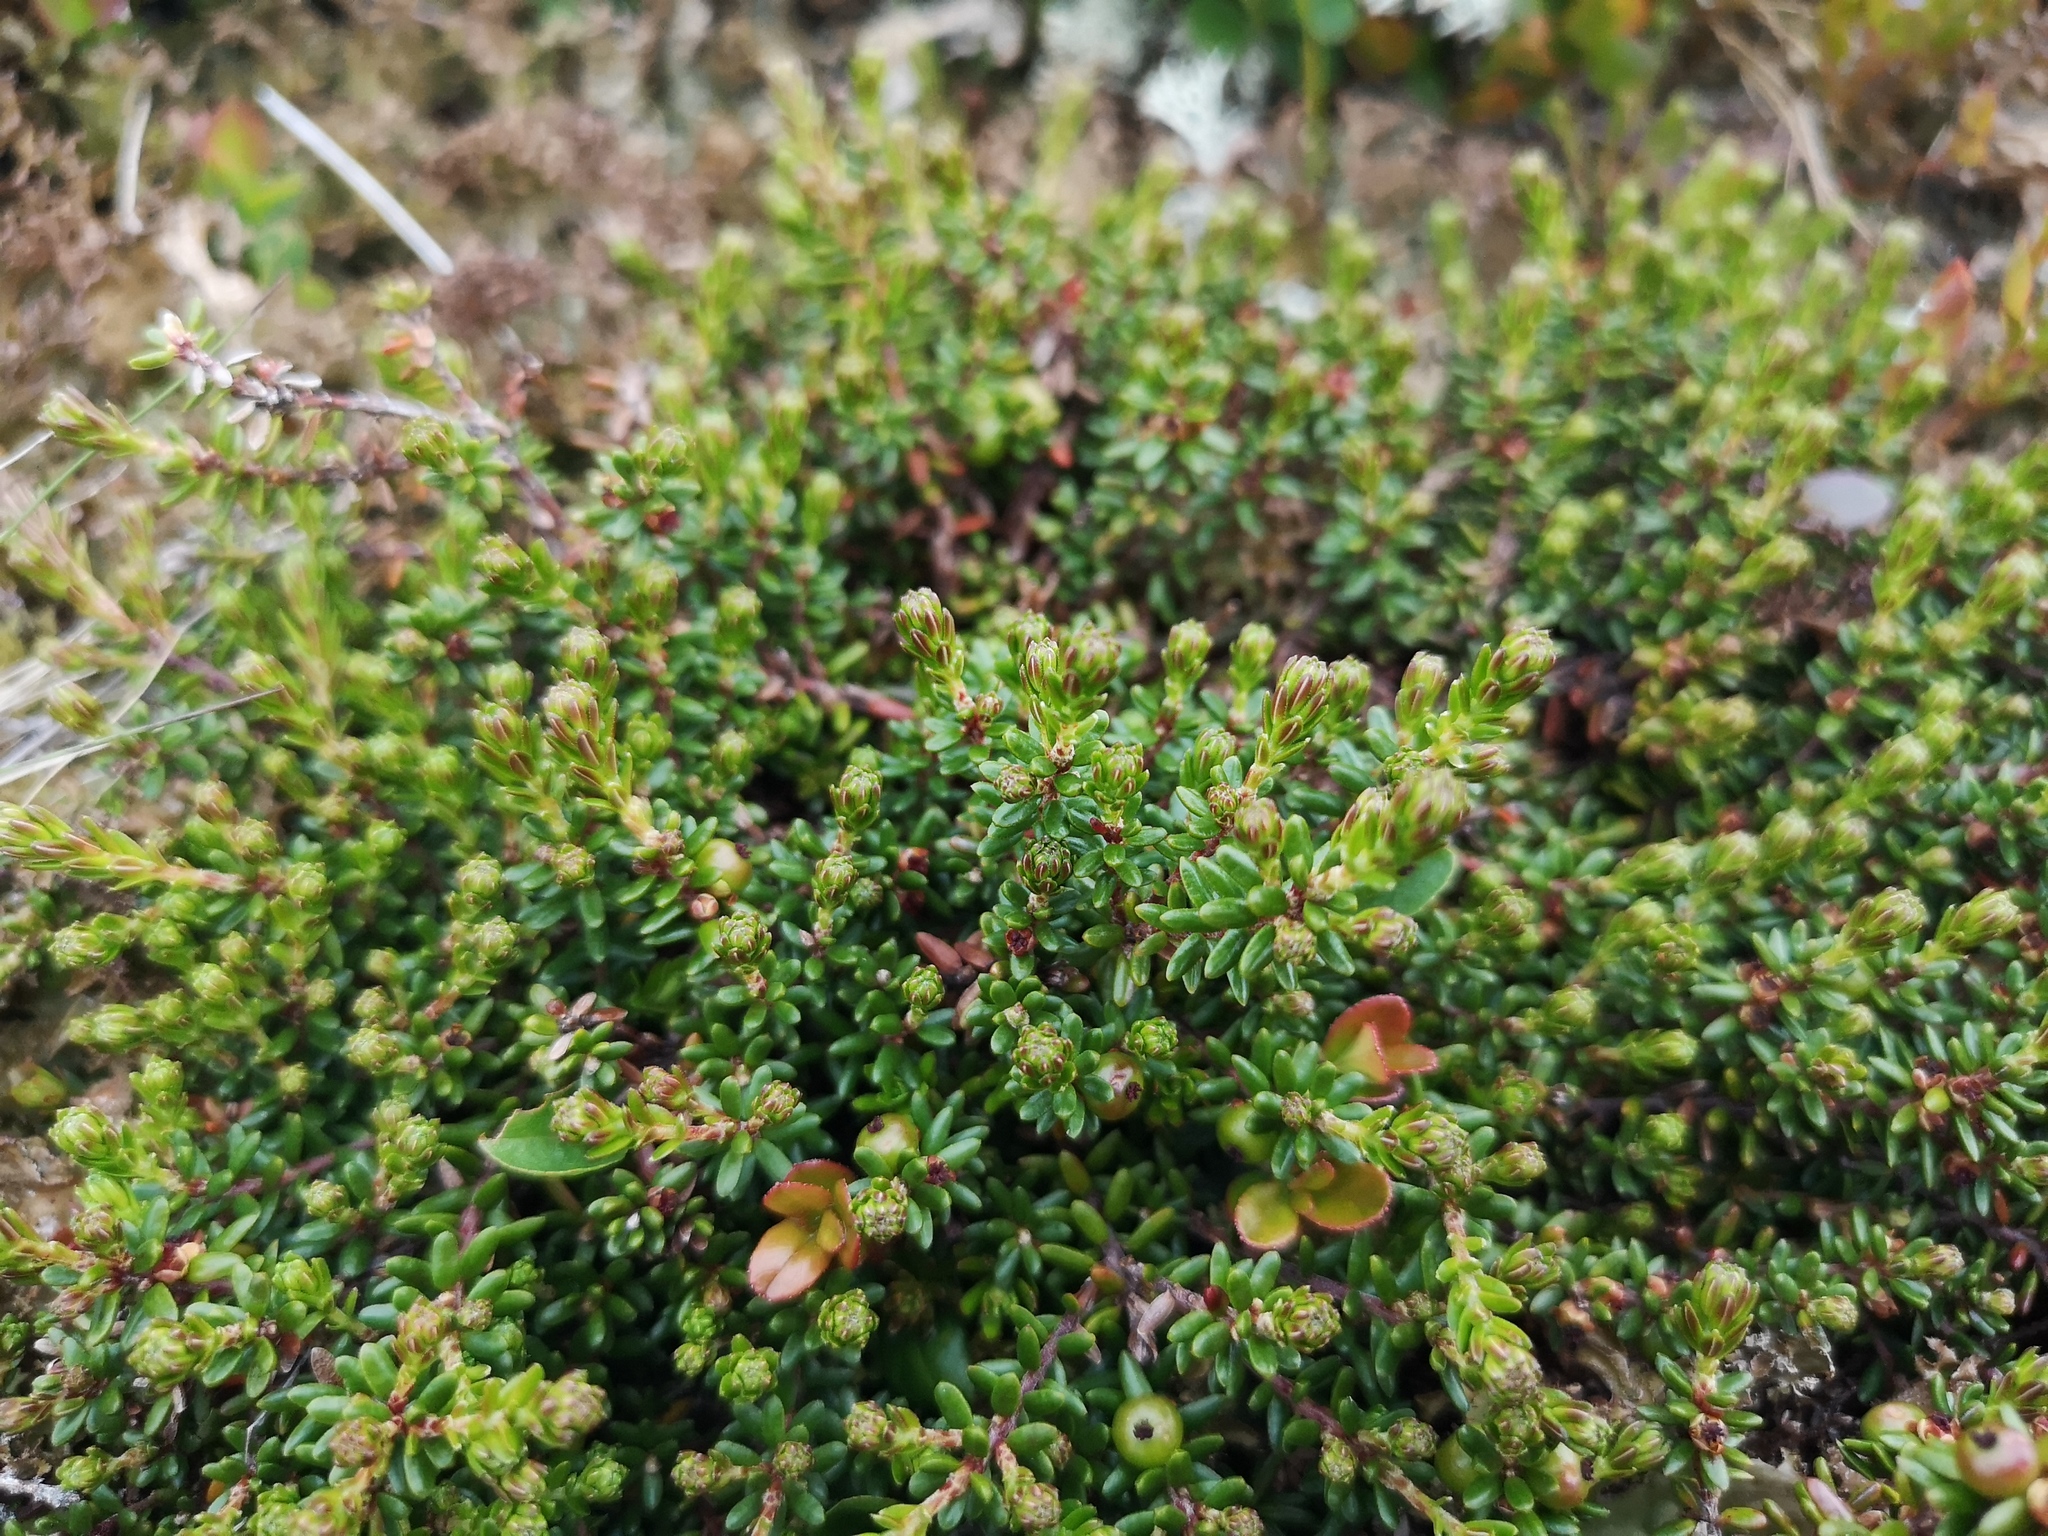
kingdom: Plantae
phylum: Tracheophyta
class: Magnoliopsida
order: Ericales
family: Ericaceae
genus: Empetrum
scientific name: Empetrum nigrum
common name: Black crowberry
